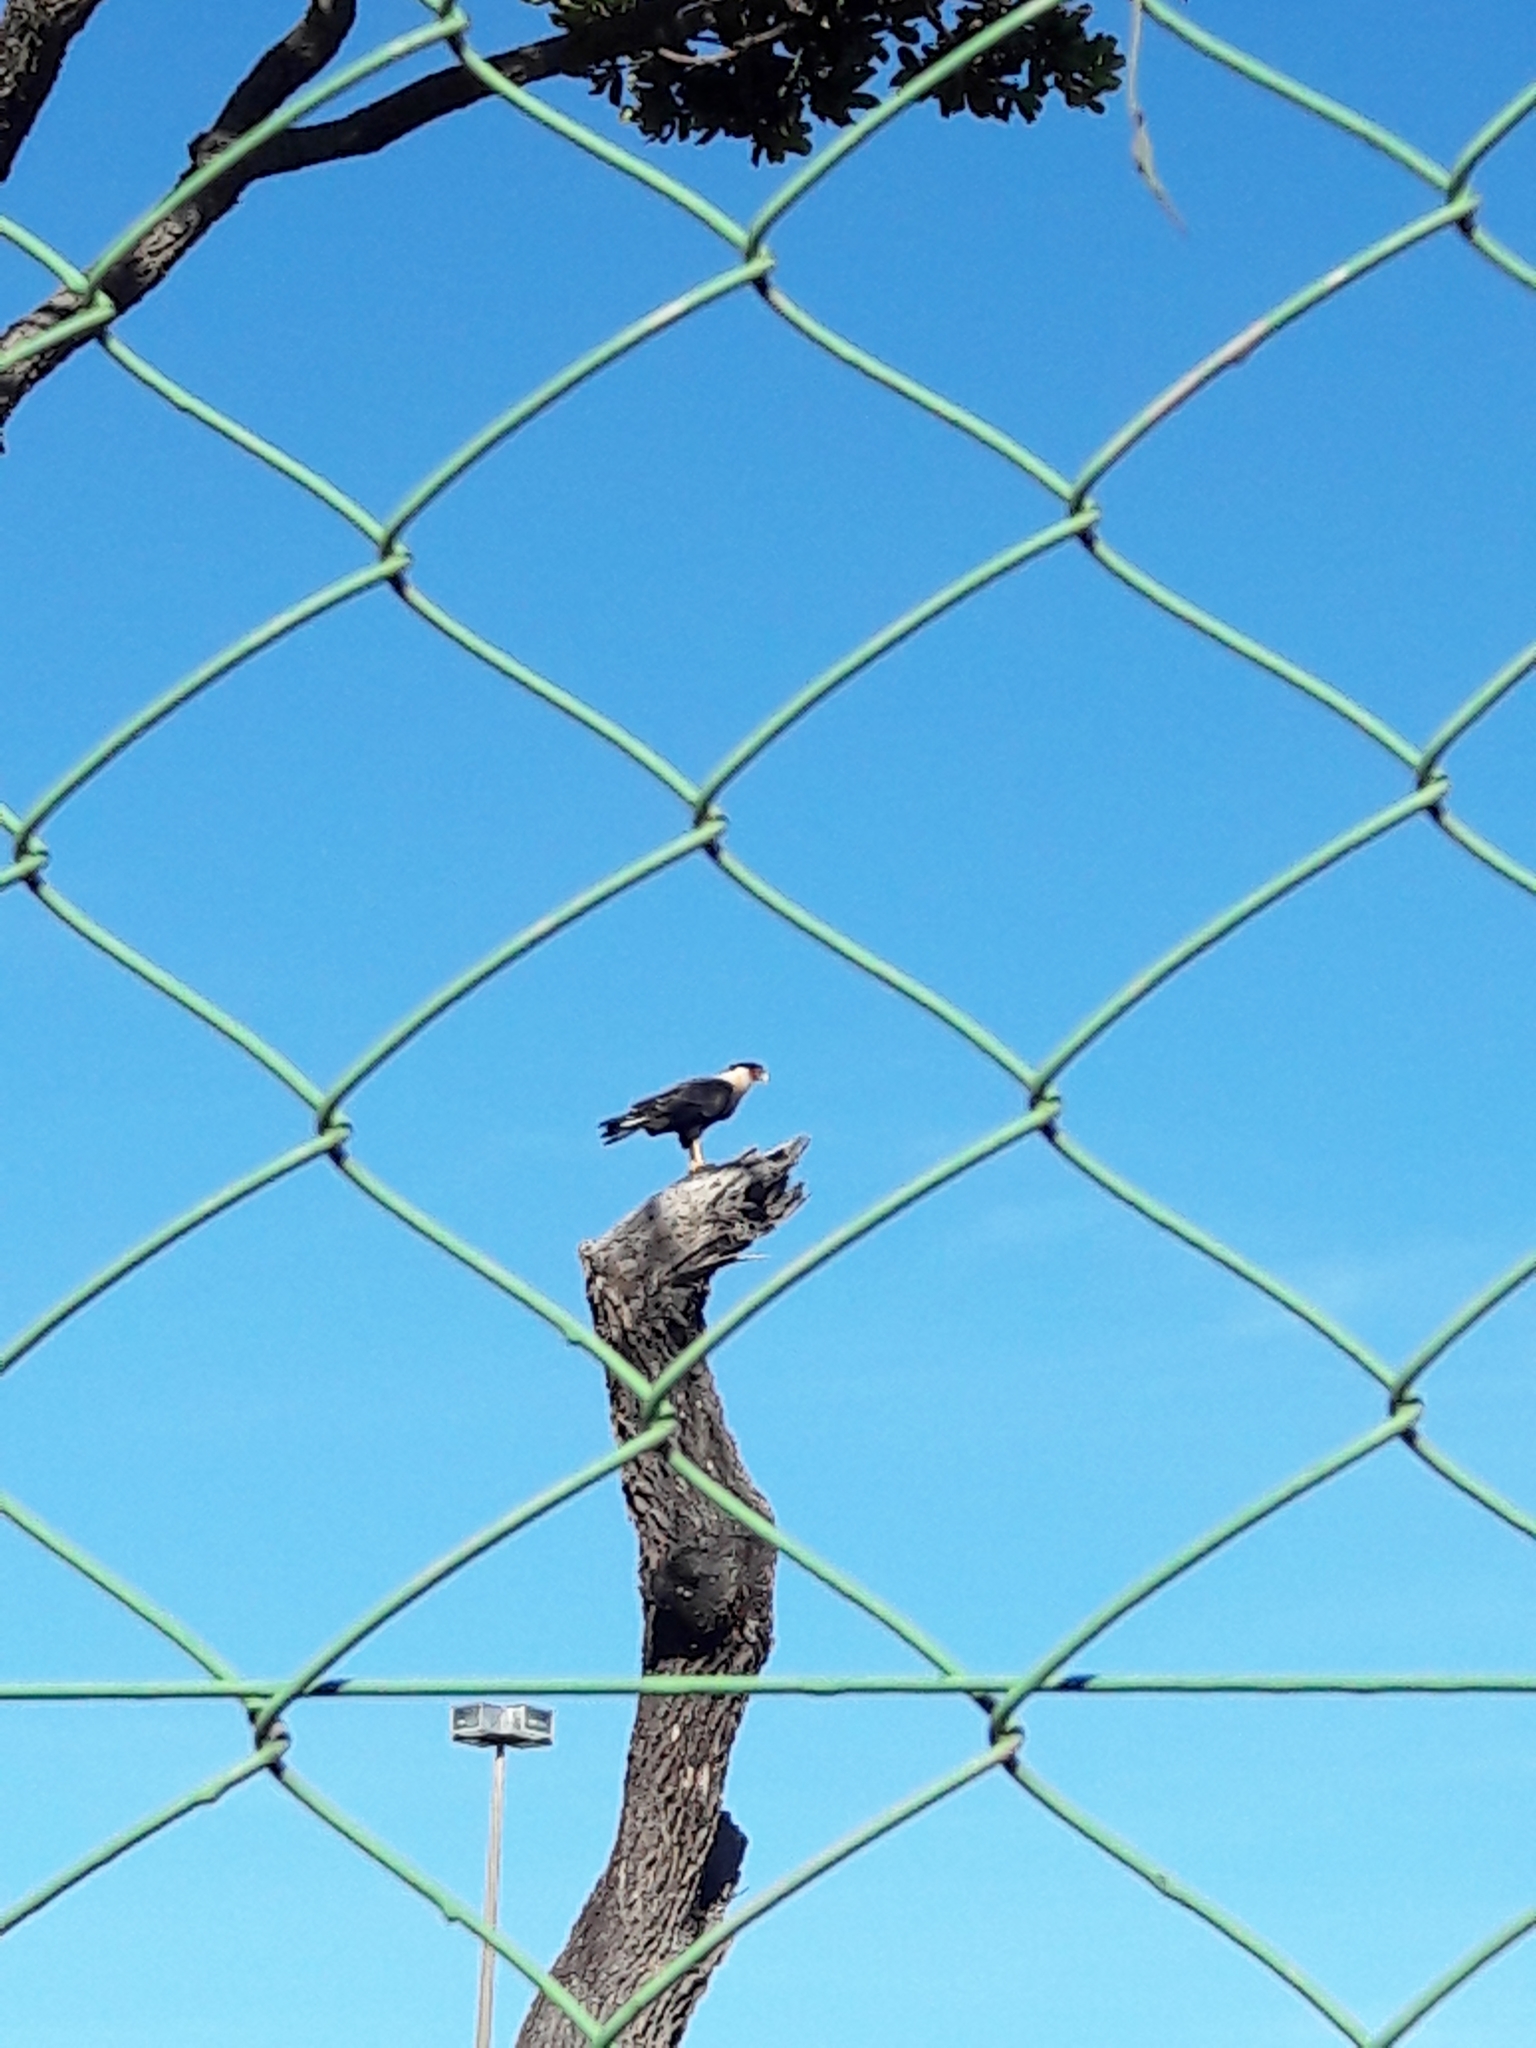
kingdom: Animalia
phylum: Chordata
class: Aves
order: Falconiformes
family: Falconidae
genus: Caracara
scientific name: Caracara plancus
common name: Southern caracara
